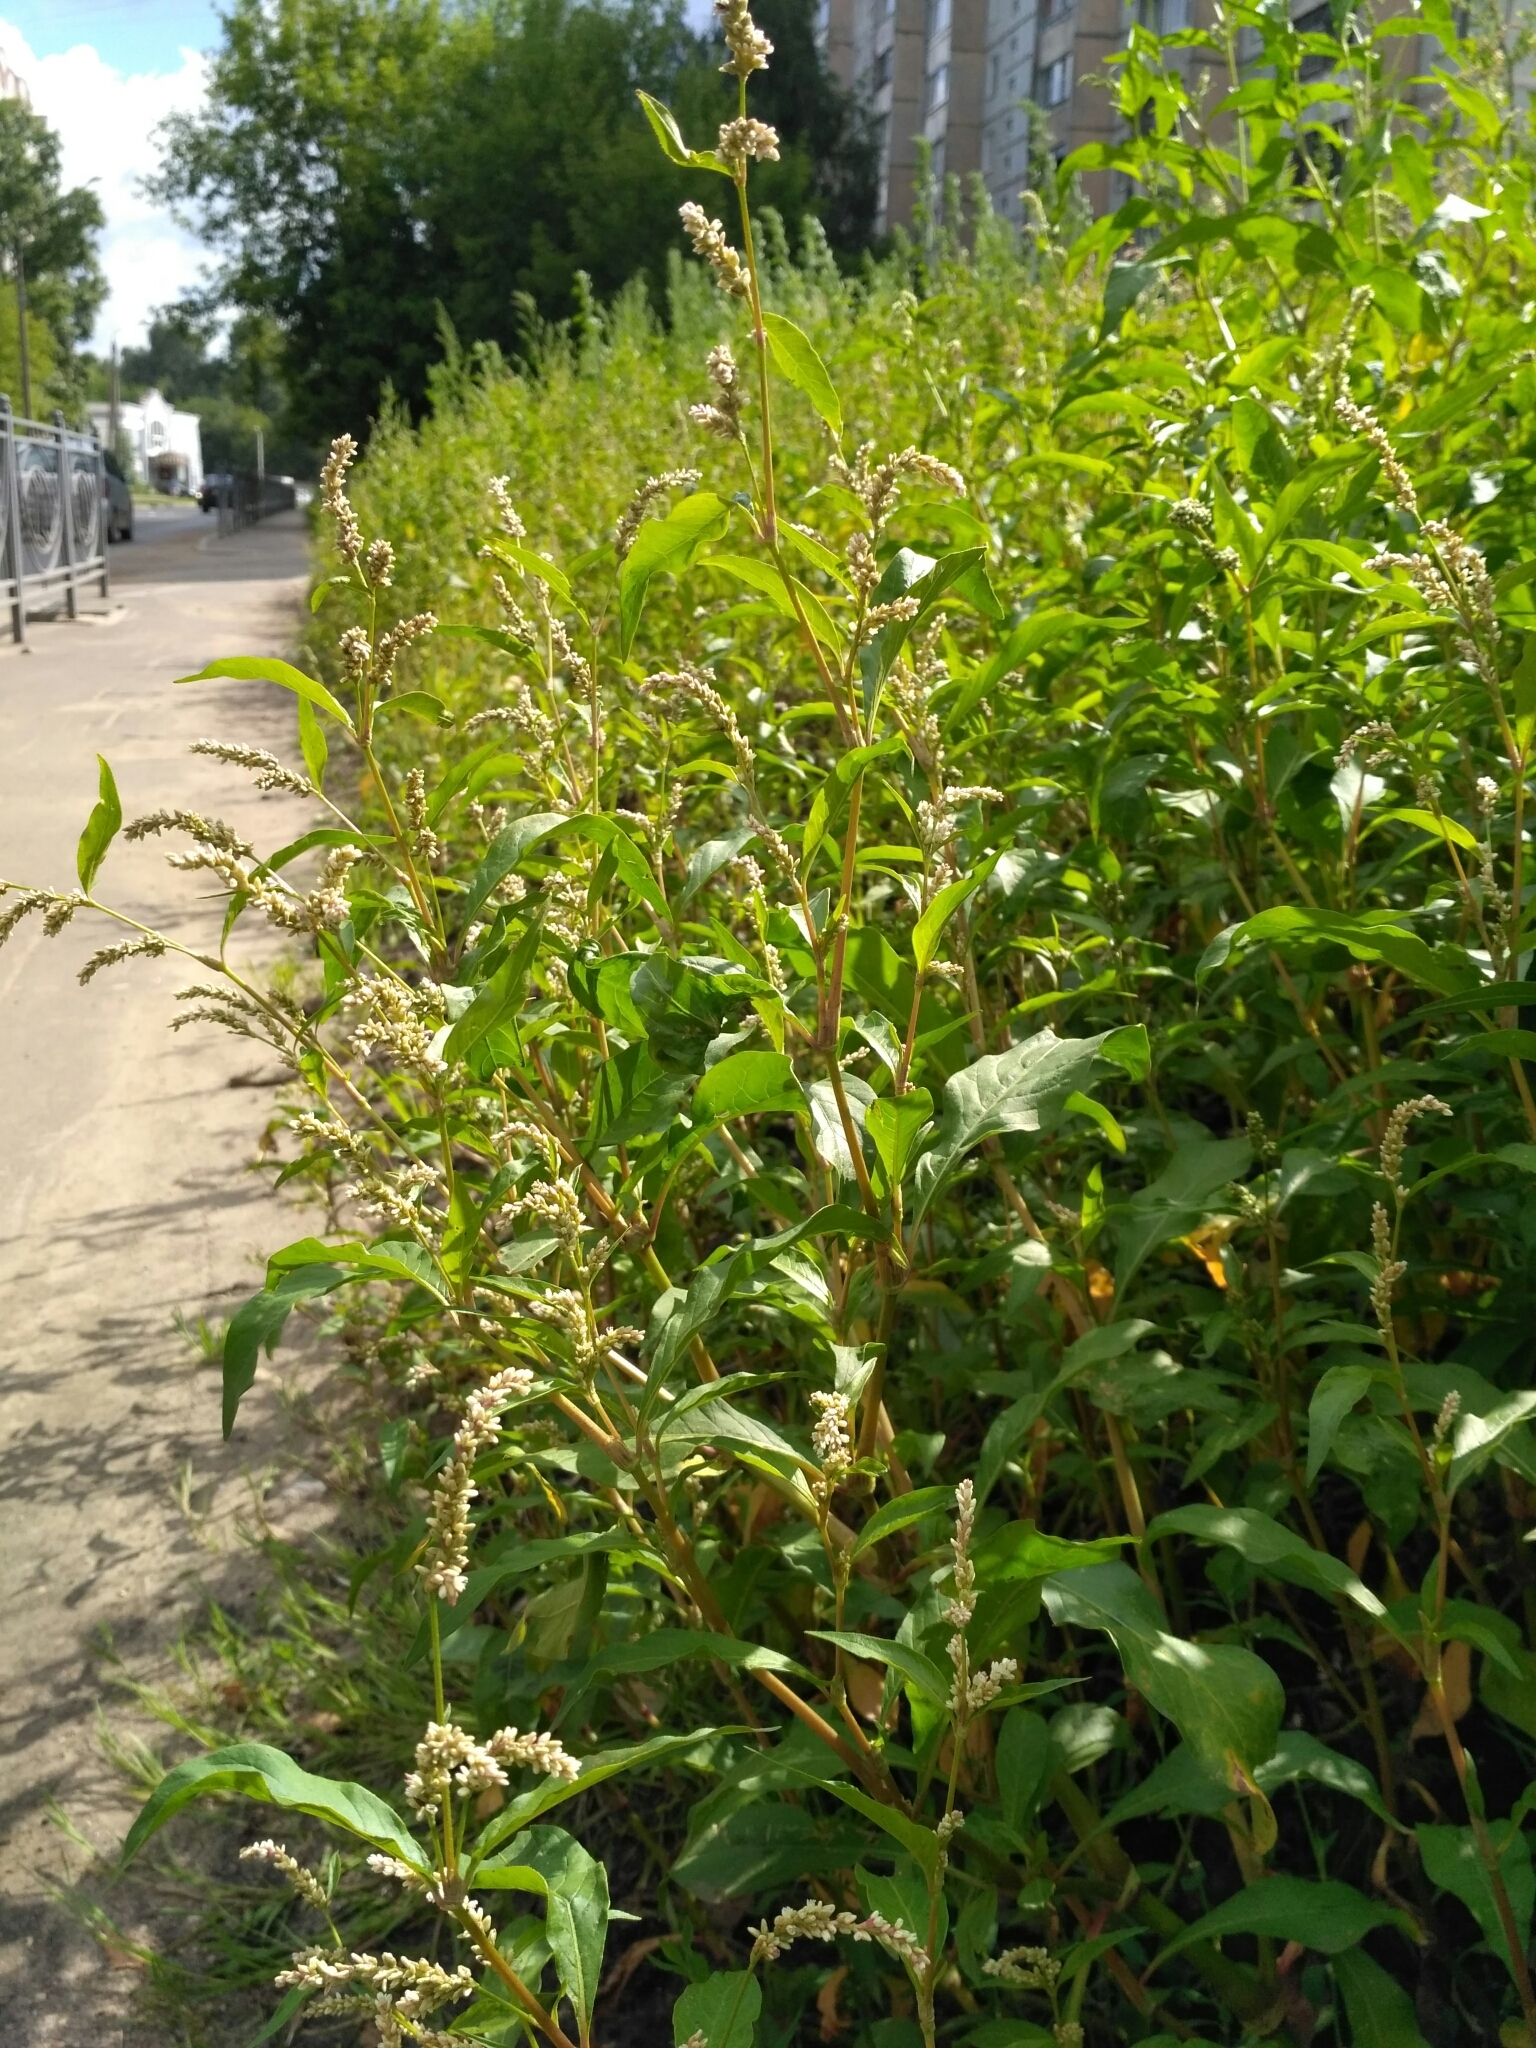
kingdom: Plantae
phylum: Tracheophyta
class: Magnoliopsida
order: Caryophyllales
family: Polygonaceae
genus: Persicaria
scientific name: Persicaria lapathifolia
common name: Curlytop knotweed
